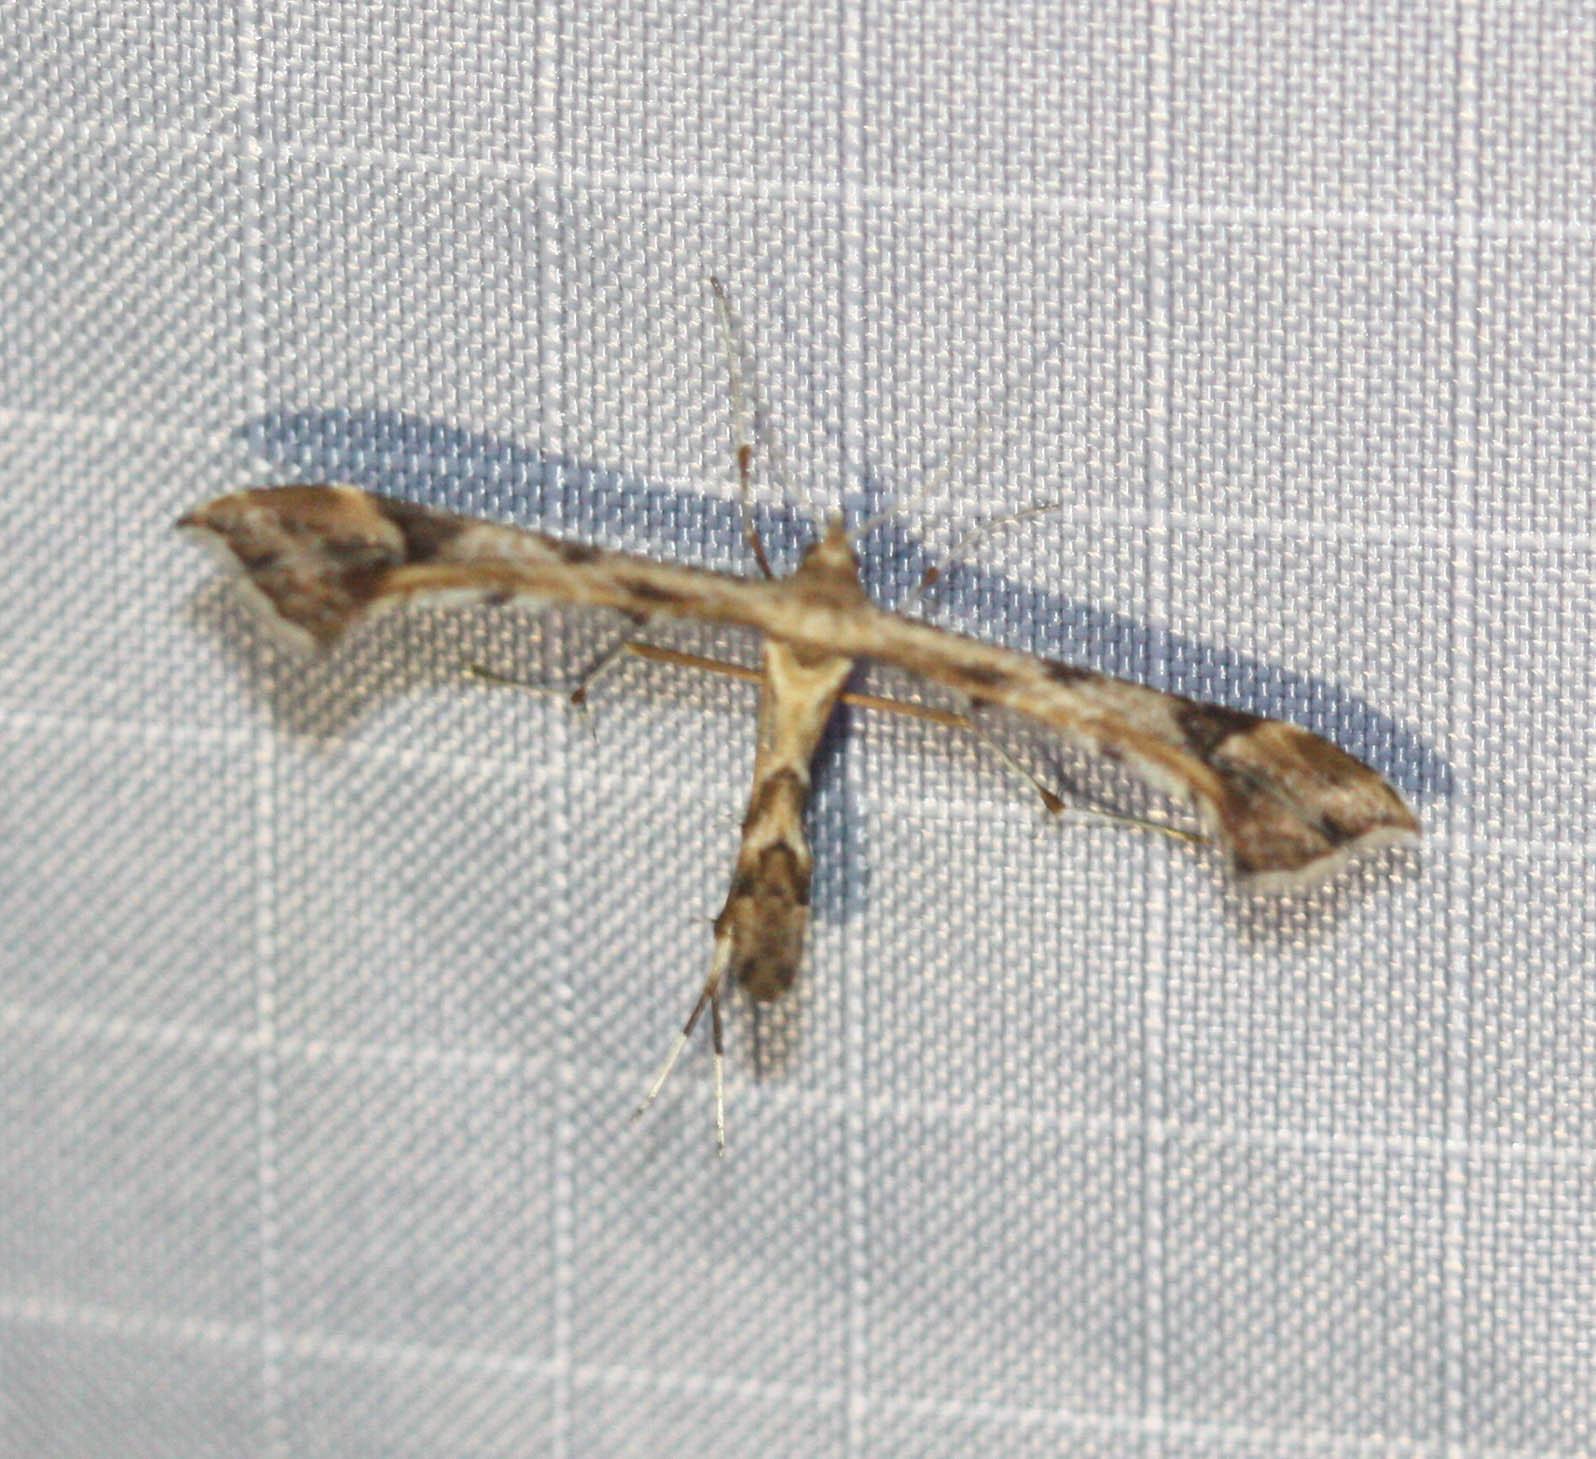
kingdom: Animalia
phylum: Arthropoda
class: Insecta
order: Lepidoptera
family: Pterophoridae
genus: Platyptilia
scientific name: Platyptilia carduidactylus
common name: Artichoke plume moth
